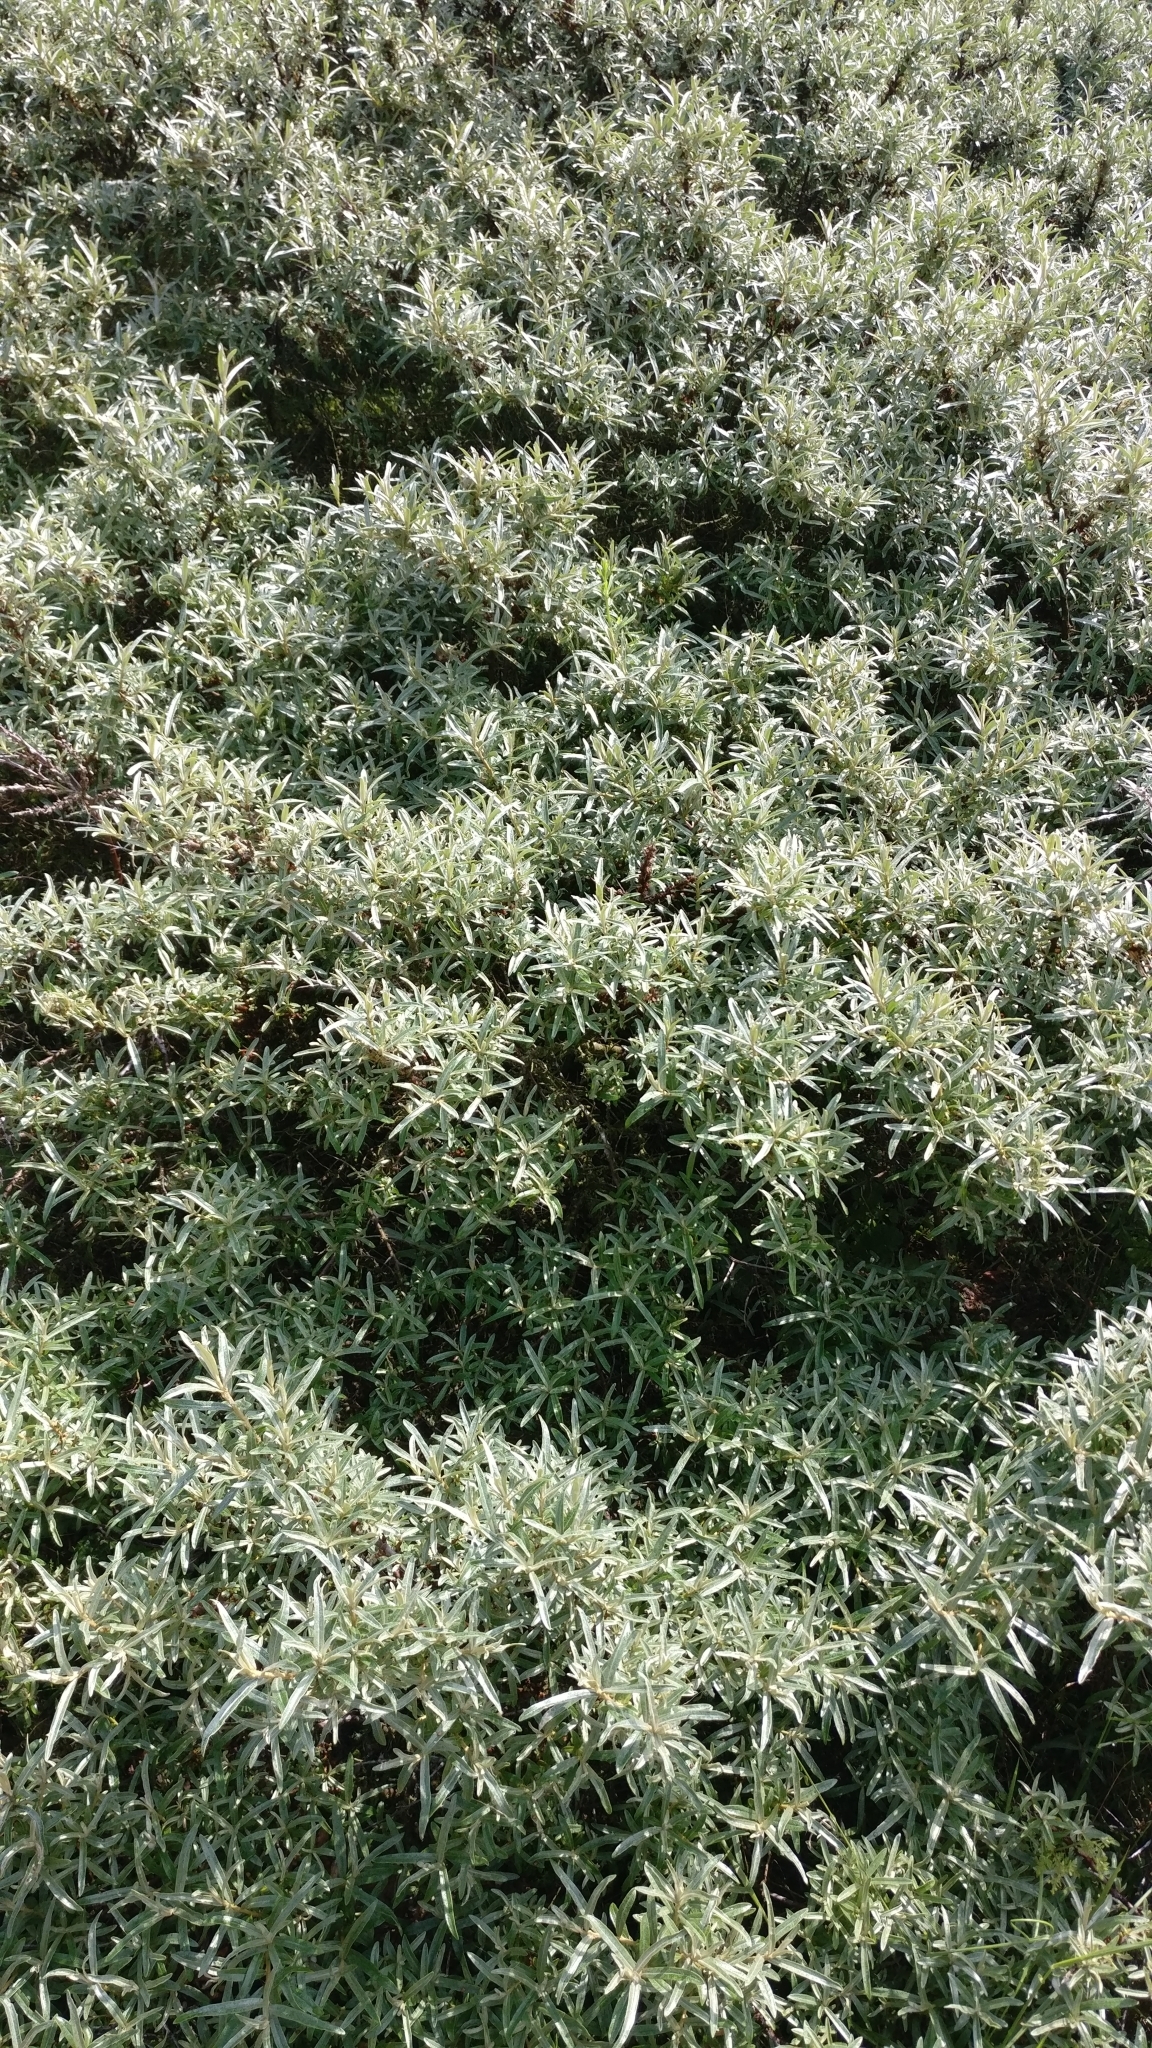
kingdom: Plantae
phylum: Tracheophyta
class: Magnoliopsida
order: Rosales
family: Elaeagnaceae
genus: Hippophae
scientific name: Hippophae rhamnoides
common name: Sea-buckthorn
